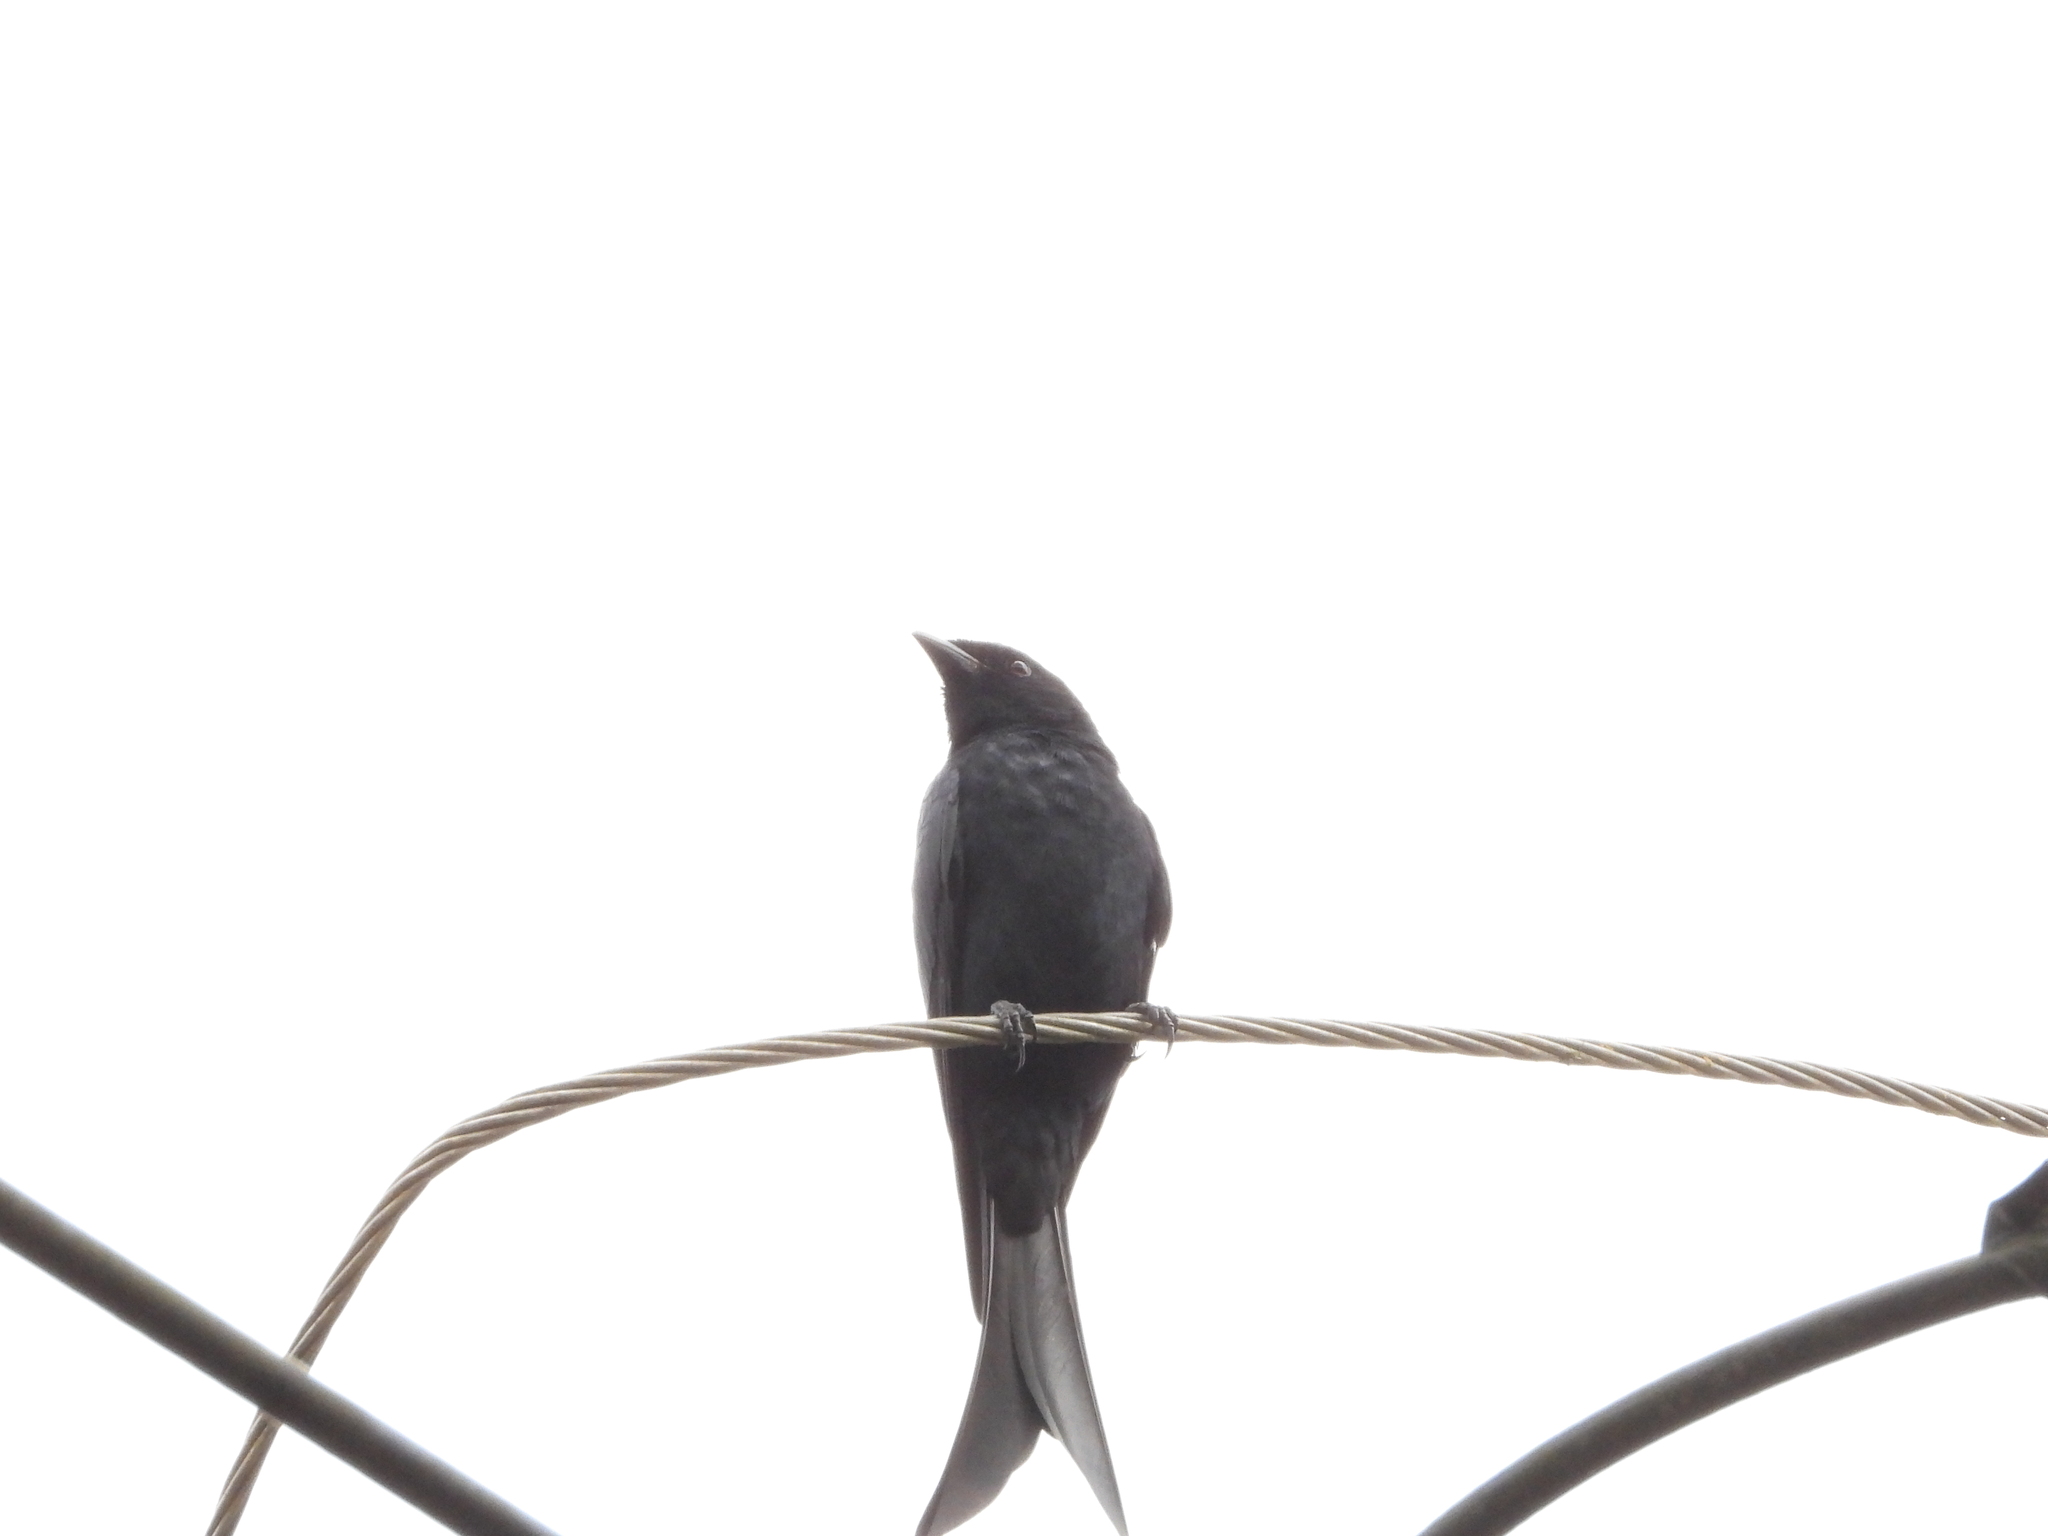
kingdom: Animalia
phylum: Chordata
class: Aves
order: Passeriformes
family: Dicruridae
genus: Dicrurus
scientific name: Dicrurus macrocercus
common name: Black drongo
